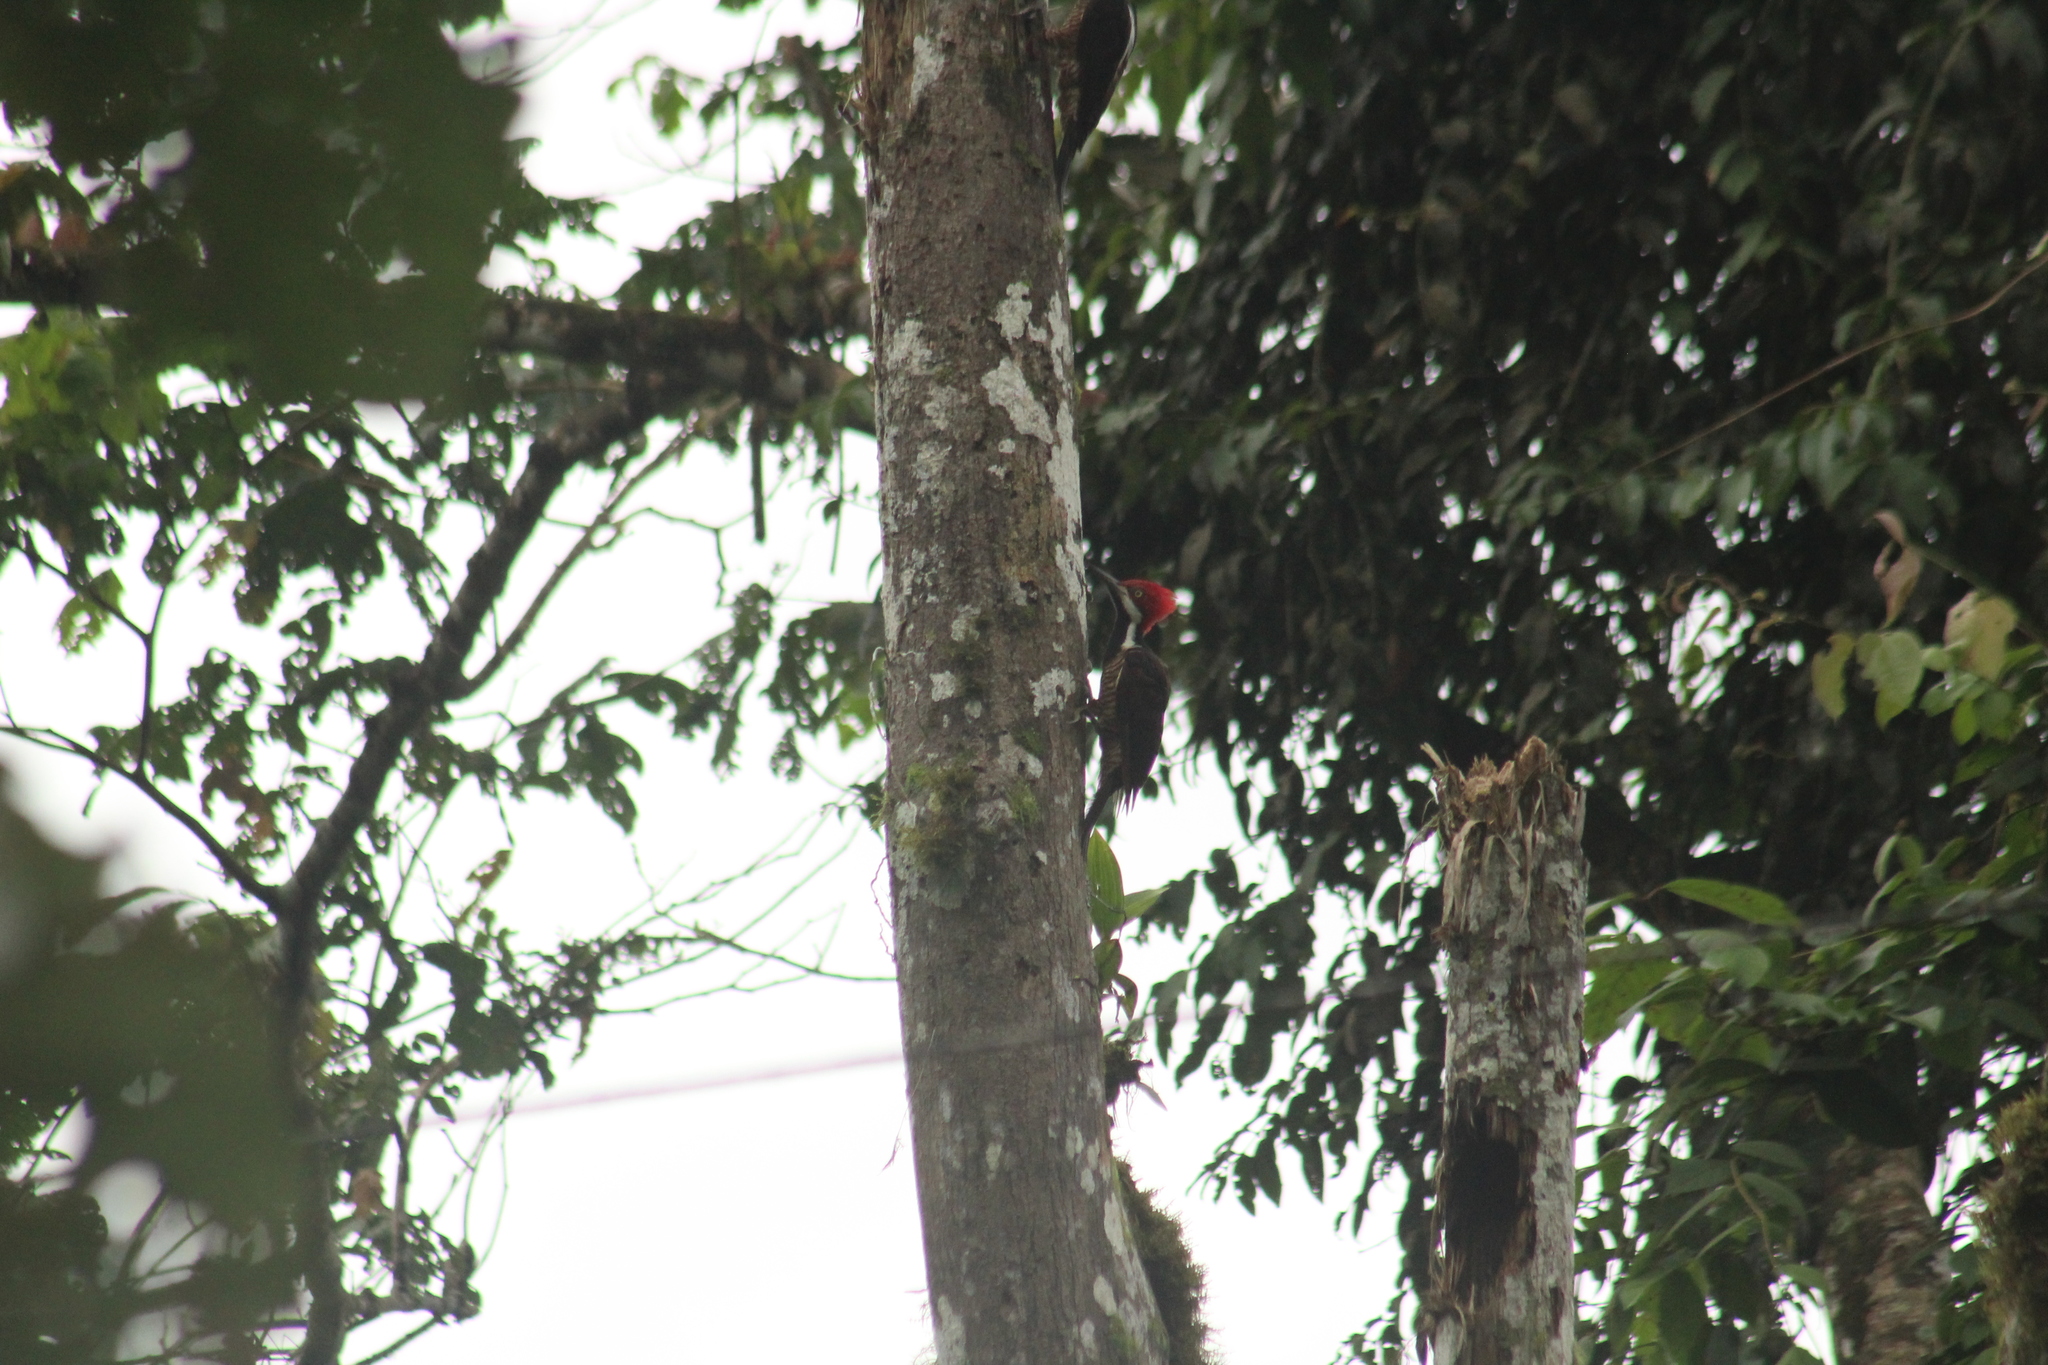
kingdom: Animalia
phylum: Chordata
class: Aves
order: Piciformes
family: Picidae
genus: Campephilus
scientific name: Campephilus gayaquilensis
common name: Guayaquil woodpecker
